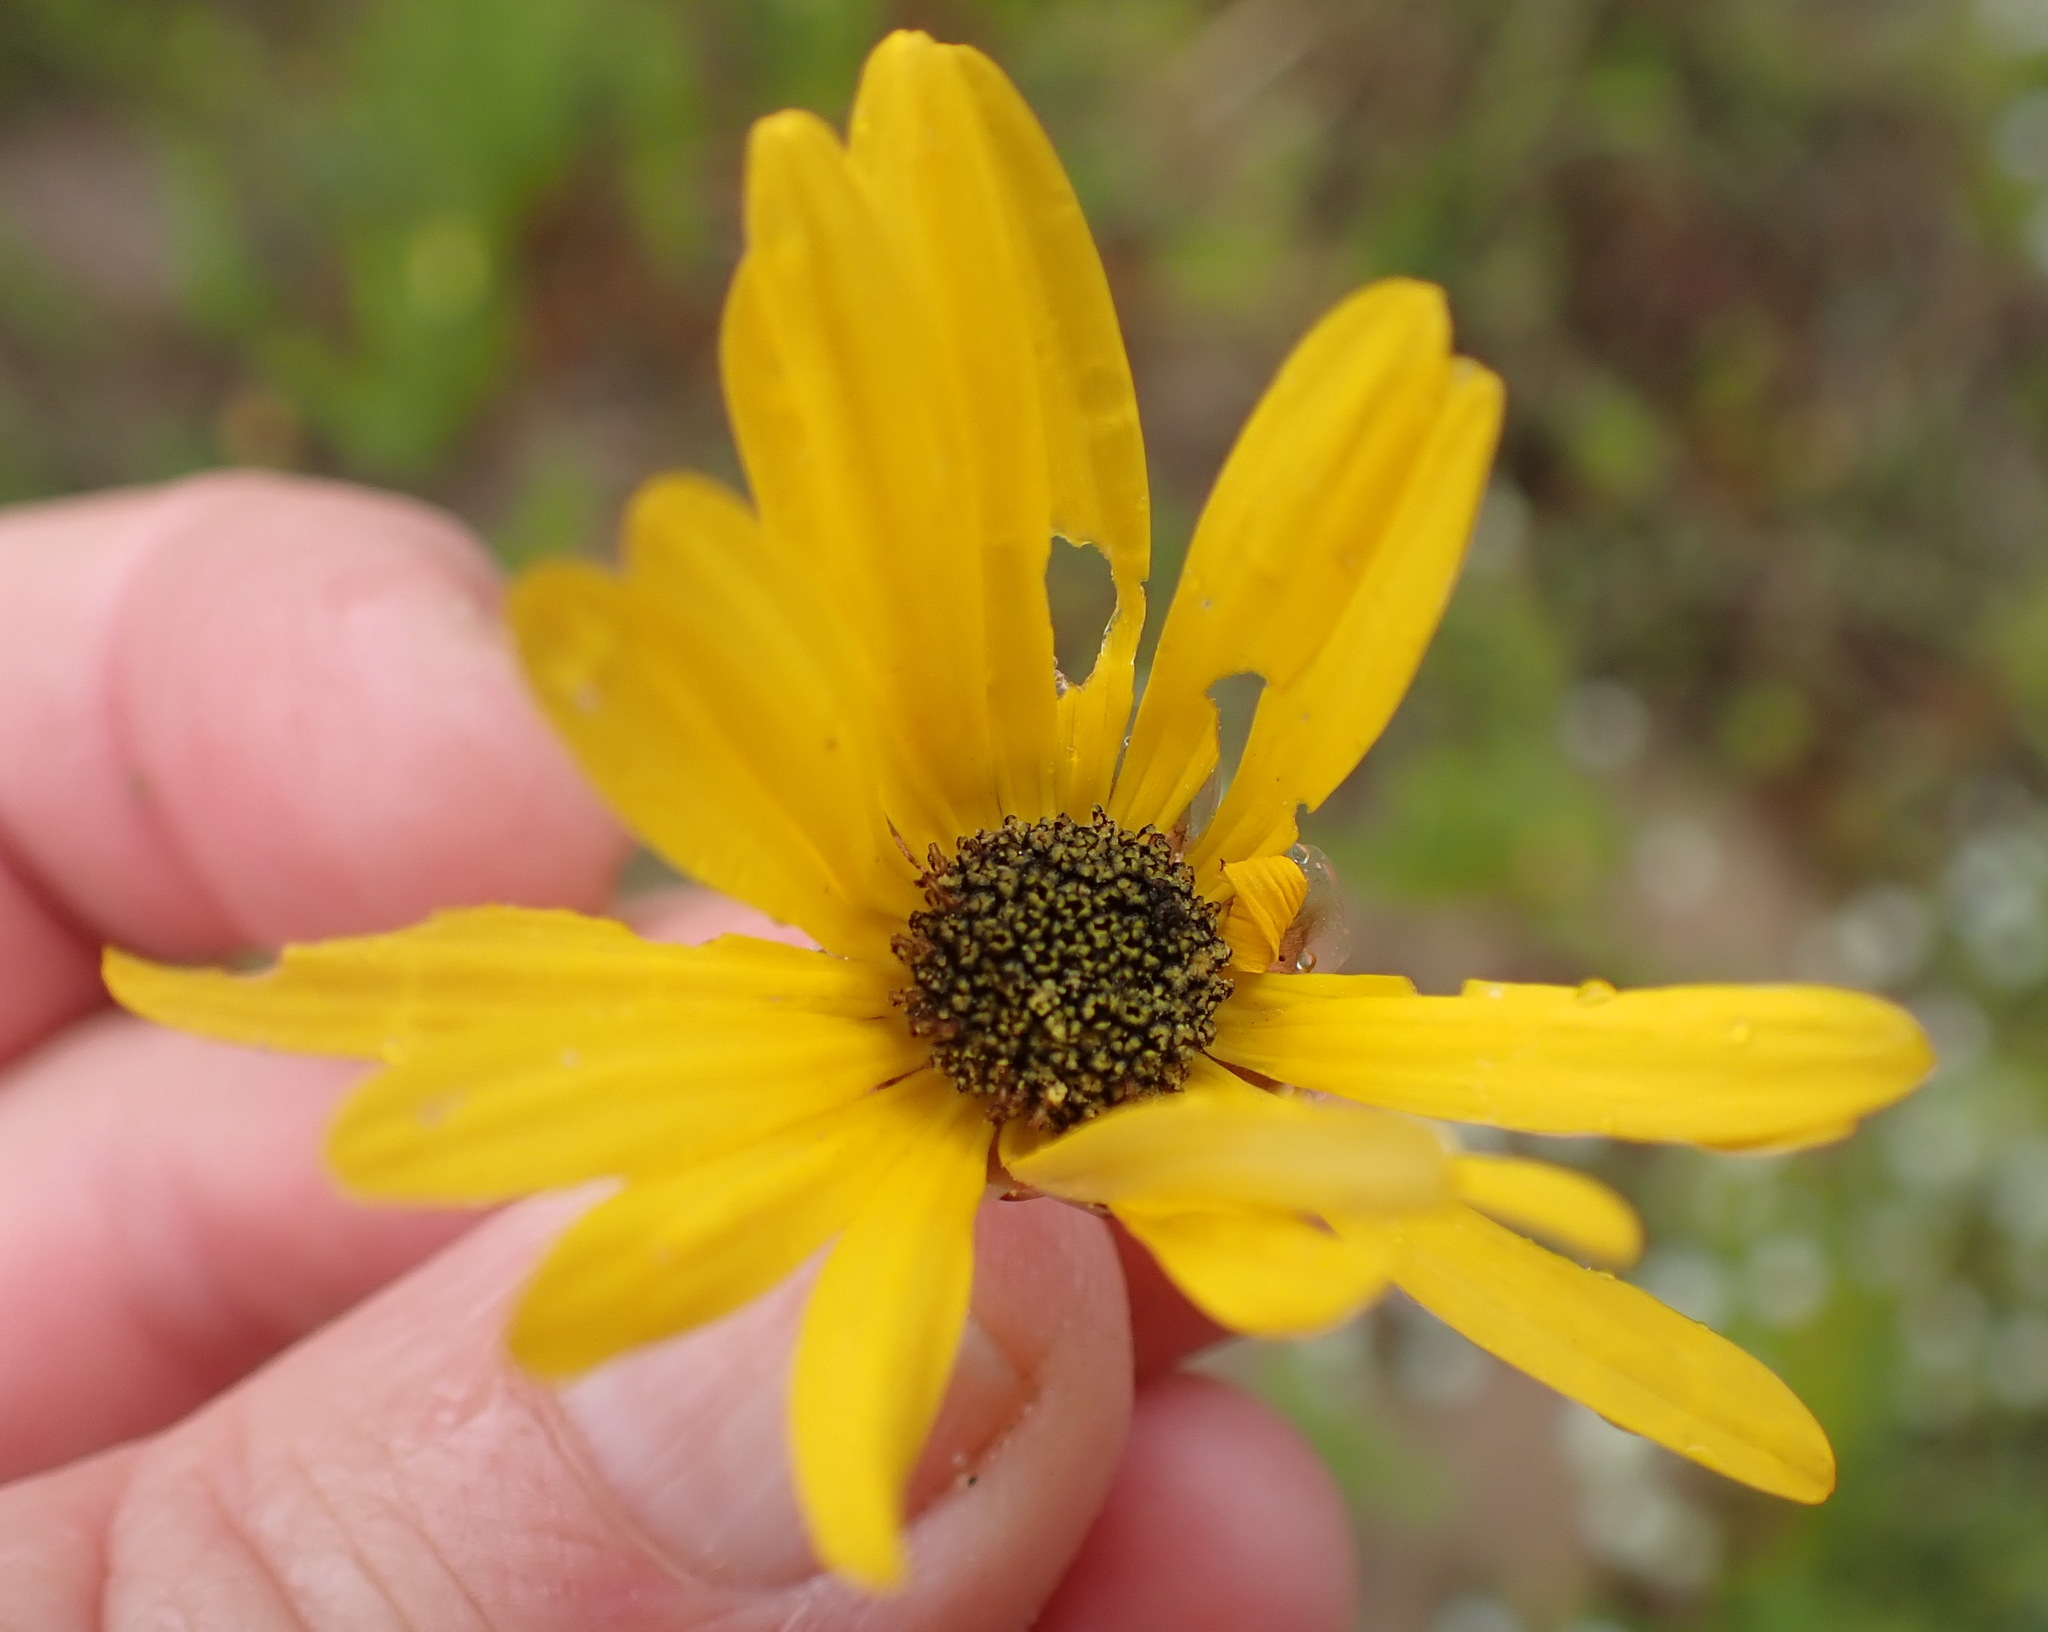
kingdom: Plantae
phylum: Tracheophyta
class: Magnoliopsida
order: Asterales
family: Asteraceae
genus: Ursinia
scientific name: Ursinia chrysanthemoides
